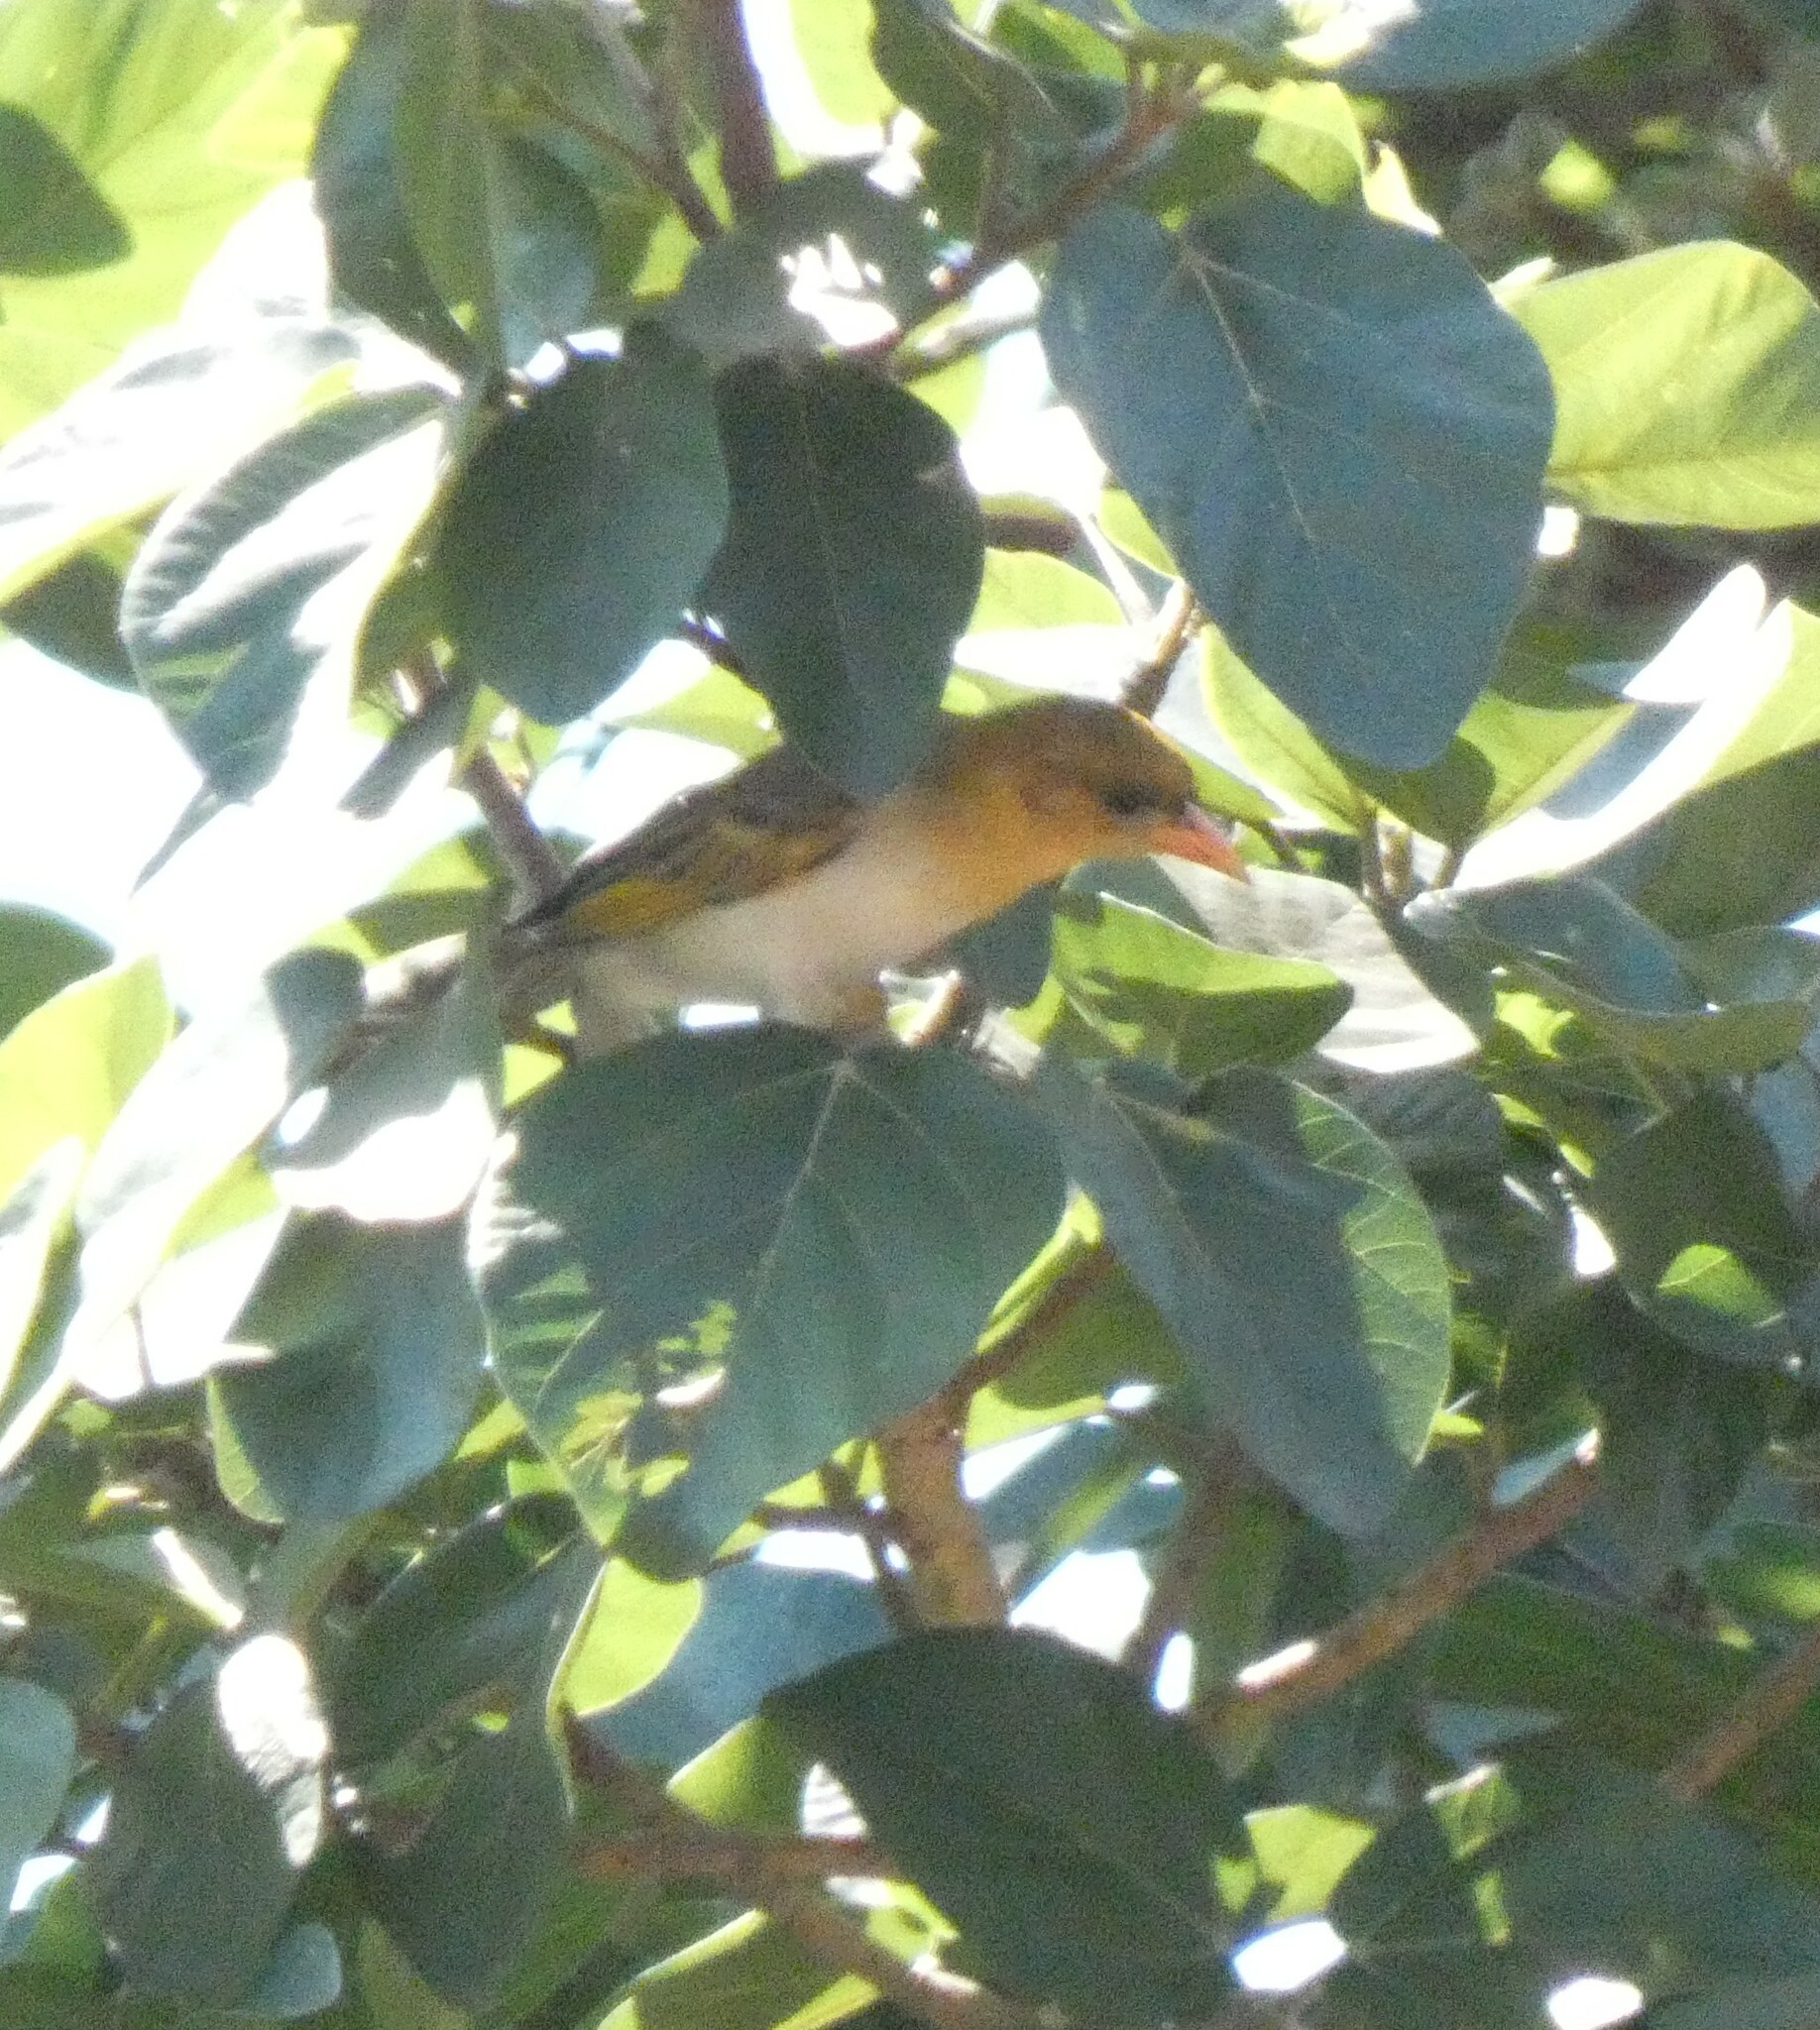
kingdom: Animalia
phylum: Chordata
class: Aves
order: Passeriformes
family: Ploceidae
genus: Anaplectes
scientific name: Anaplectes rubriceps
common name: Red-headed weaver
